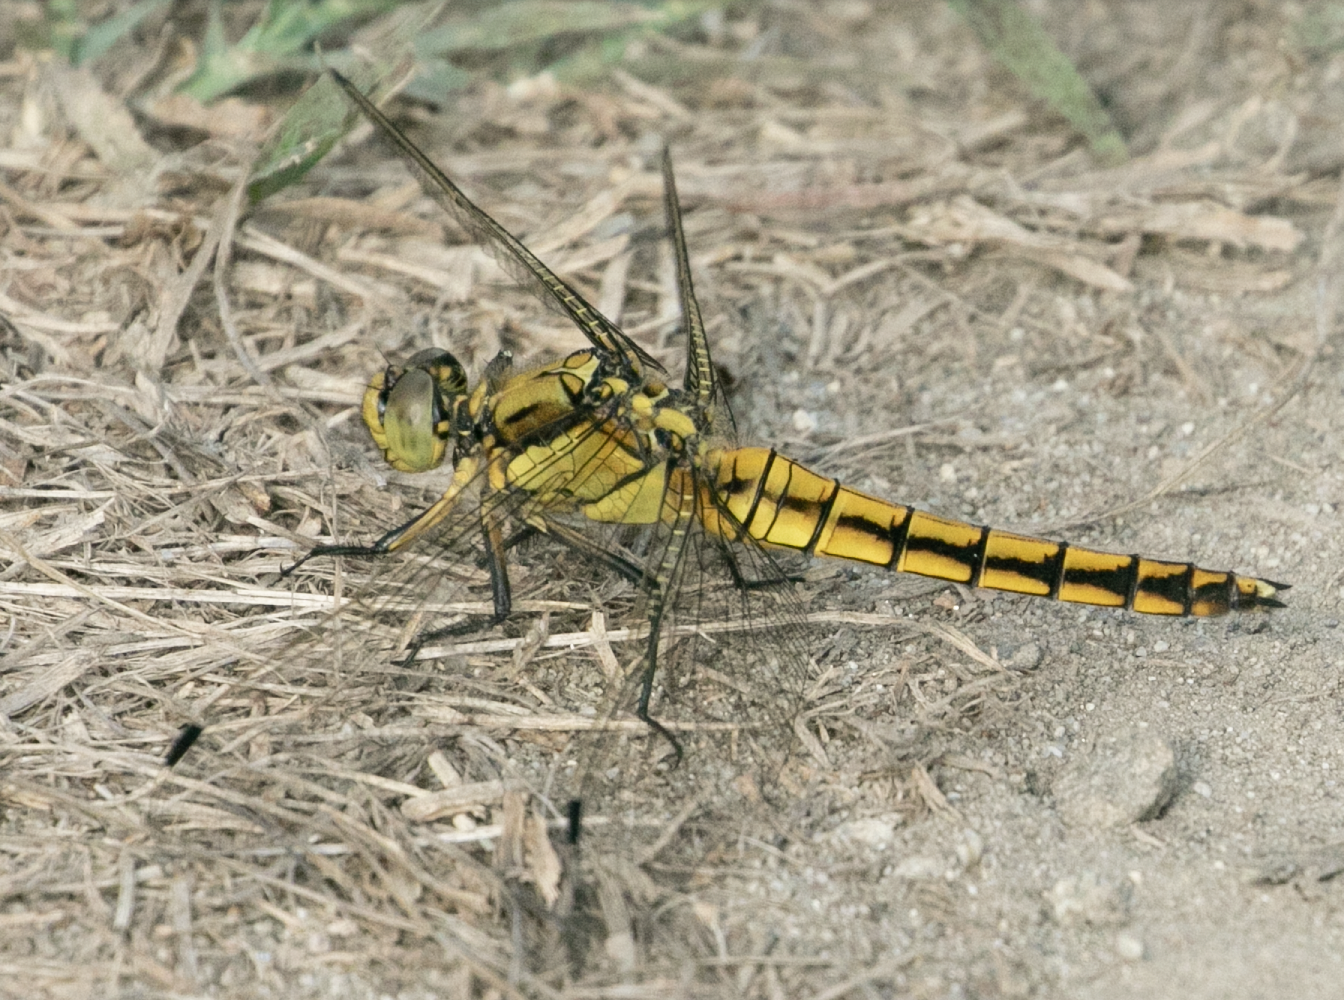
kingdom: Animalia
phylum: Arthropoda
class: Insecta
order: Odonata
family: Libellulidae
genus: Orthetrum
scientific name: Orthetrum cancellatum
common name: Black-tailed skimmer
